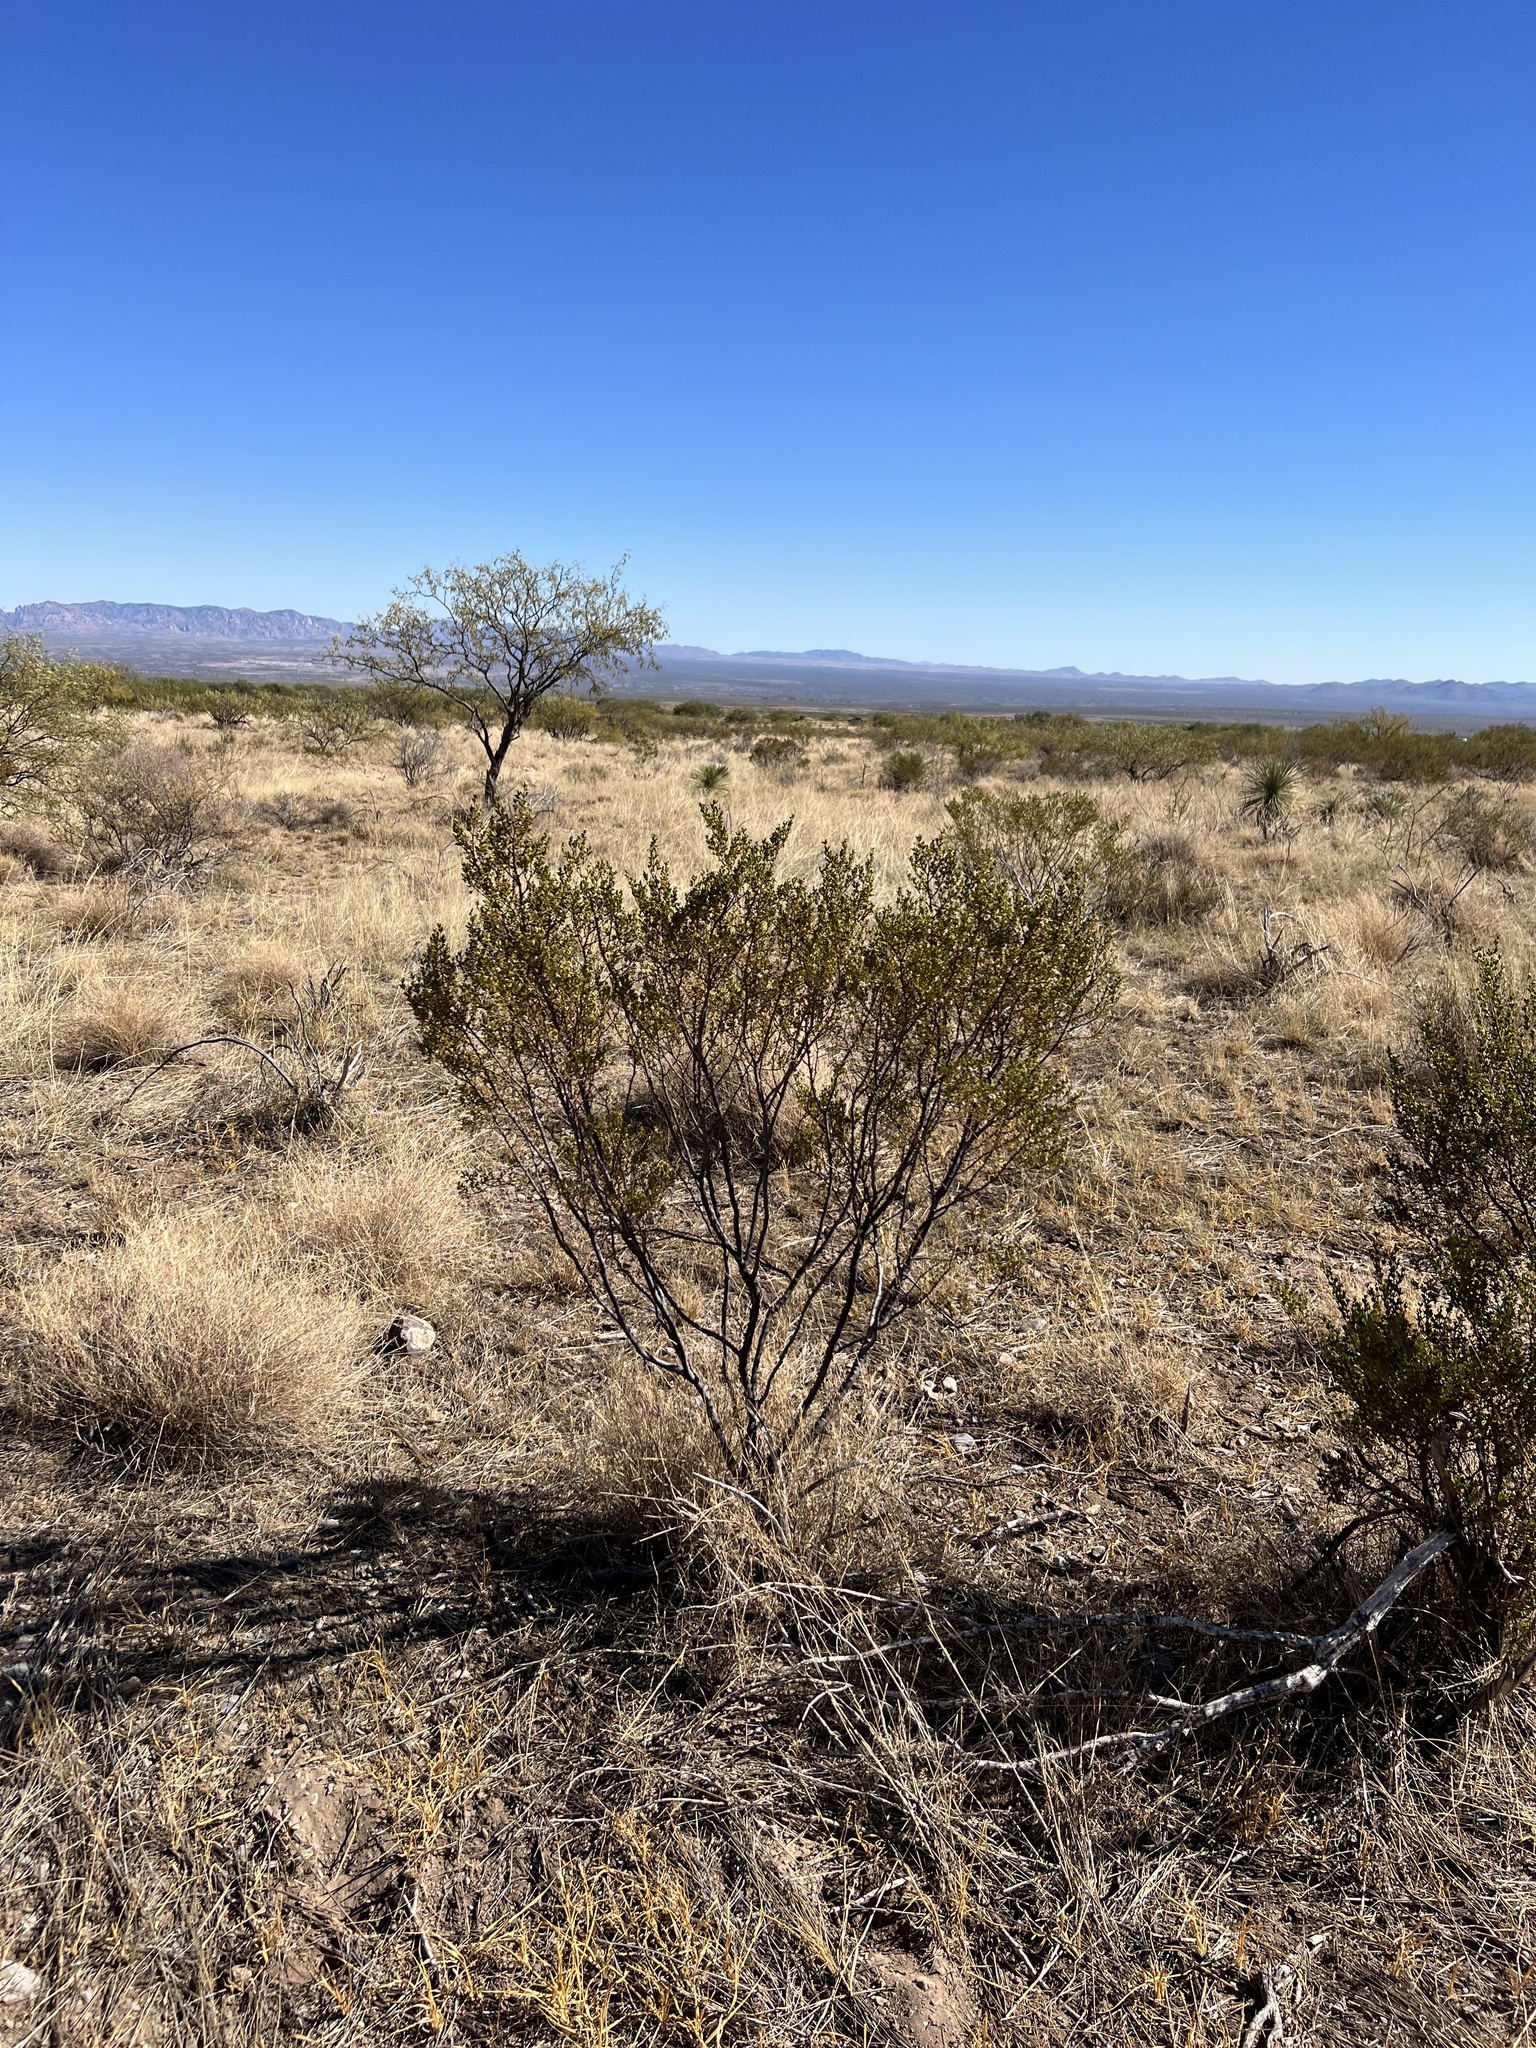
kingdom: Plantae
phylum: Tracheophyta
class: Magnoliopsida
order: Zygophyllales
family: Zygophyllaceae
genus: Larrea
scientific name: Larrea tridentata
